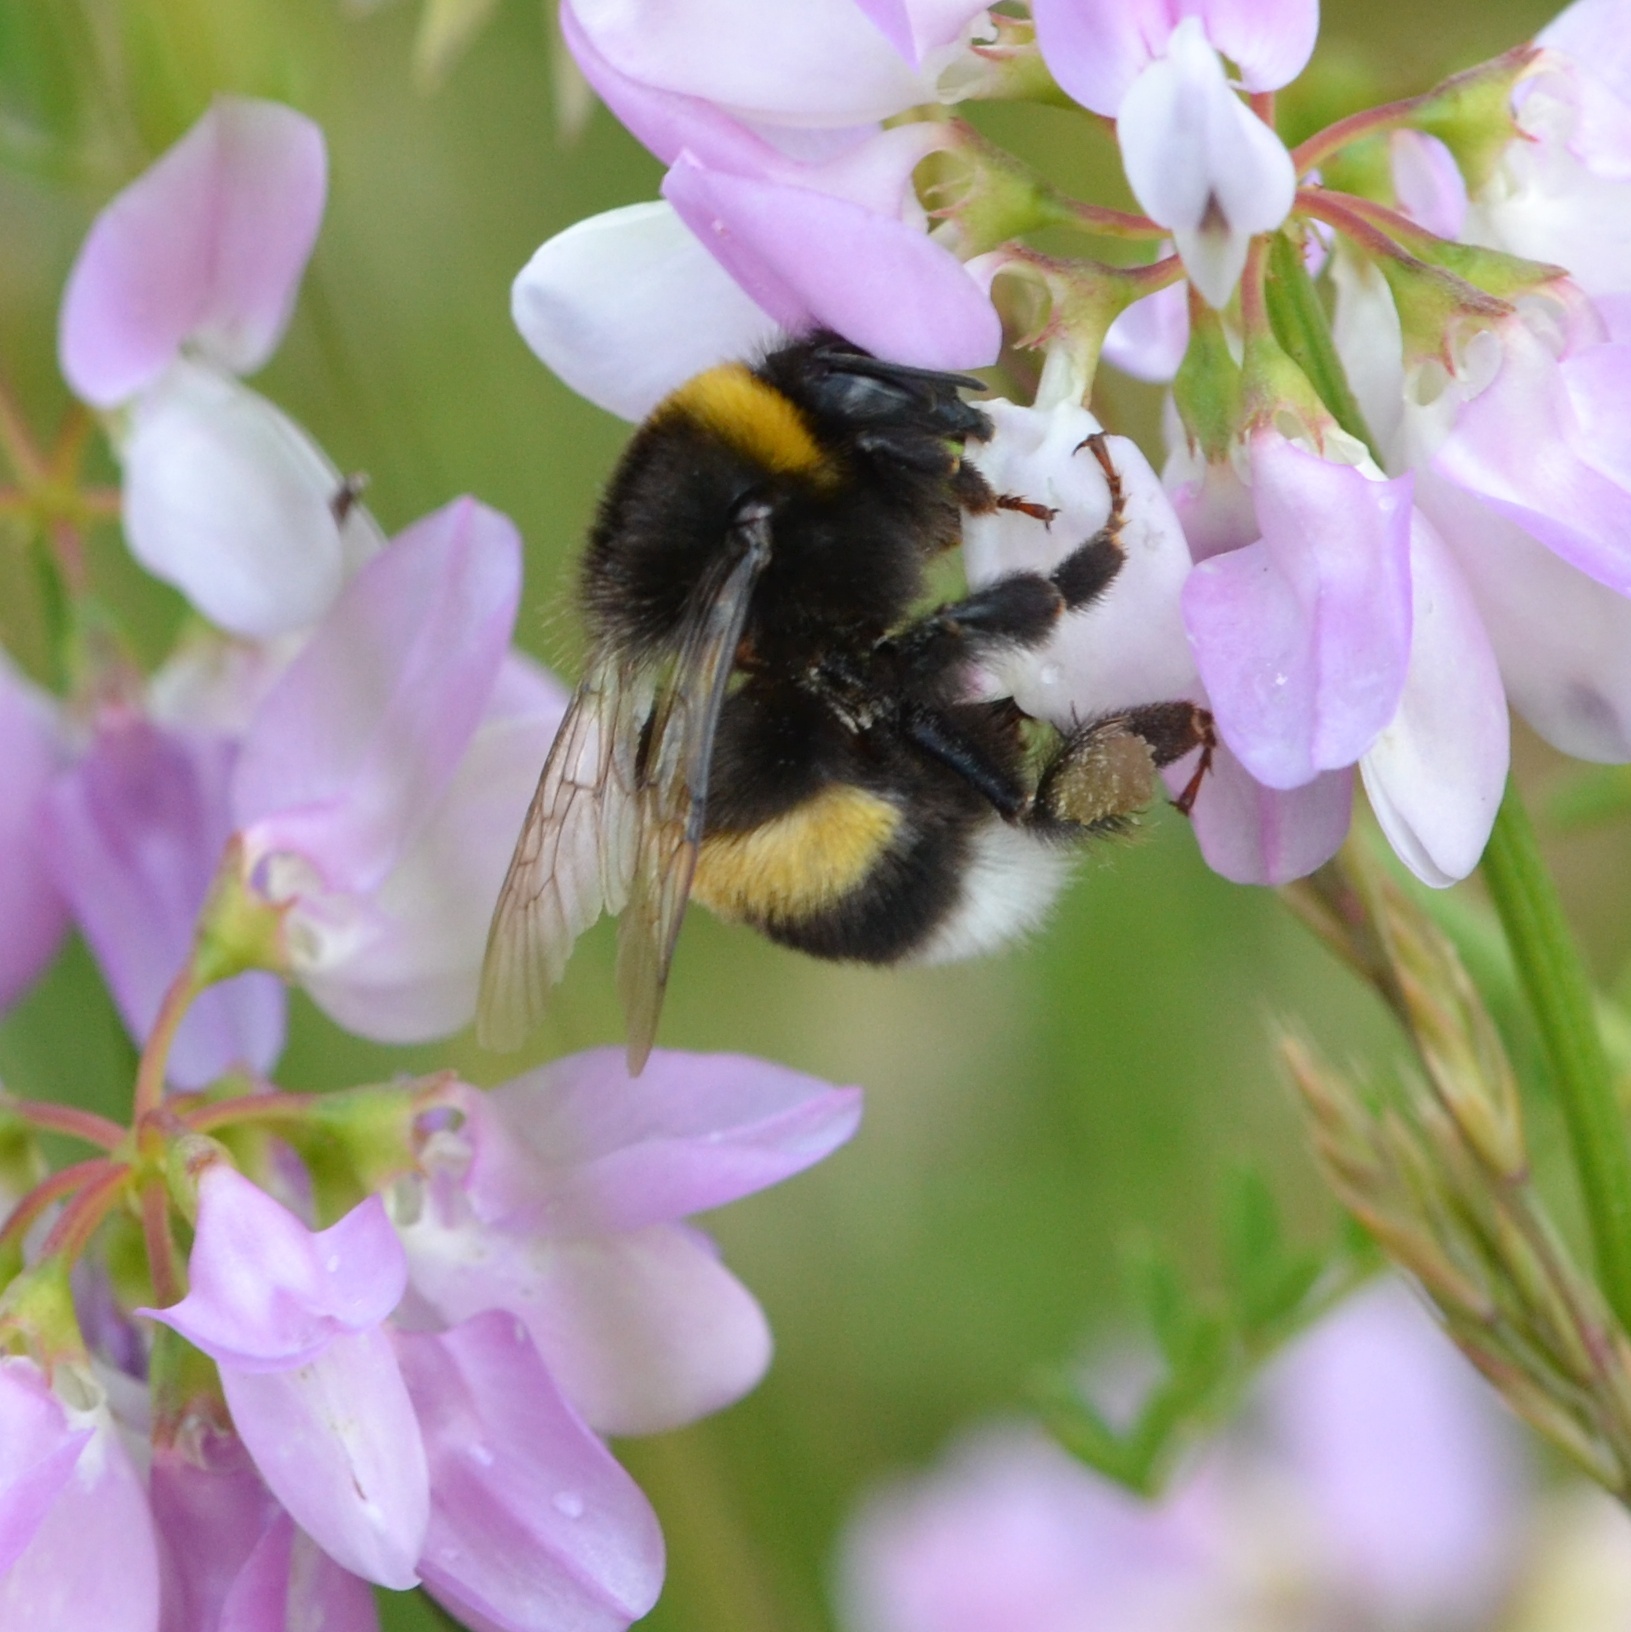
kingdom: Animalia
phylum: Arthropoda
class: Insecta
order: Hymenoptera
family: Apidae
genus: Bombus
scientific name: Bombus terrestris
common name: Buff-tailed bumblebee
